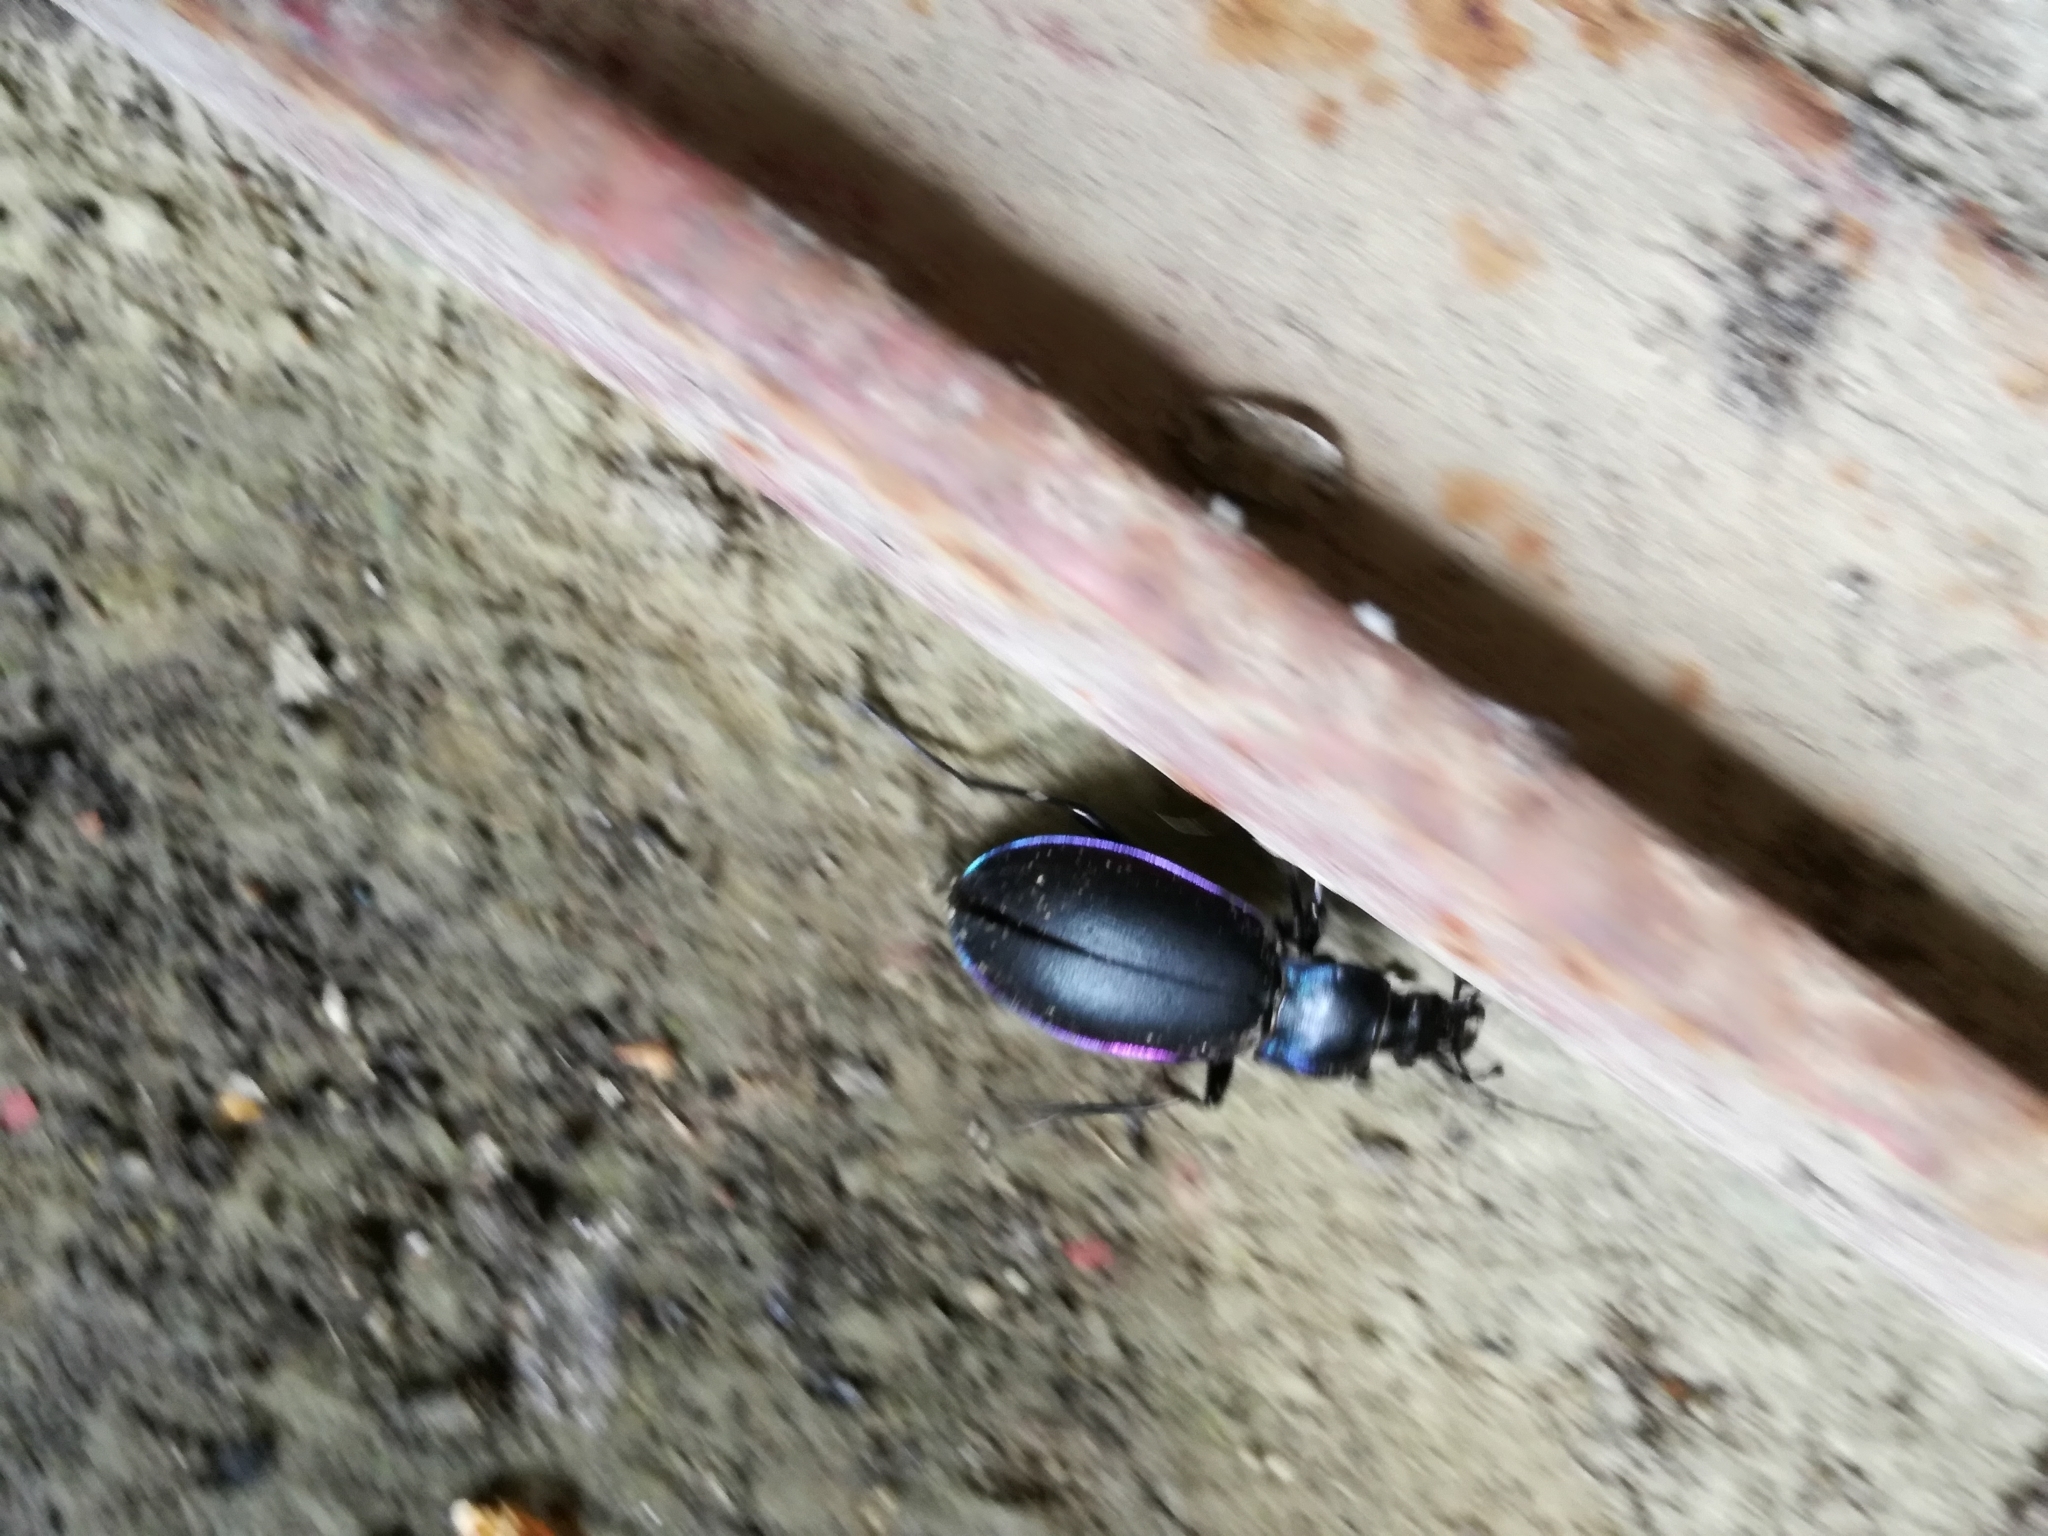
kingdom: Animalia
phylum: Arthropoda
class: Insecta
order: Coleoptera
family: Carabidae
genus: Carabus
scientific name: Carabus violaceus
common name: Violet ground beetle
